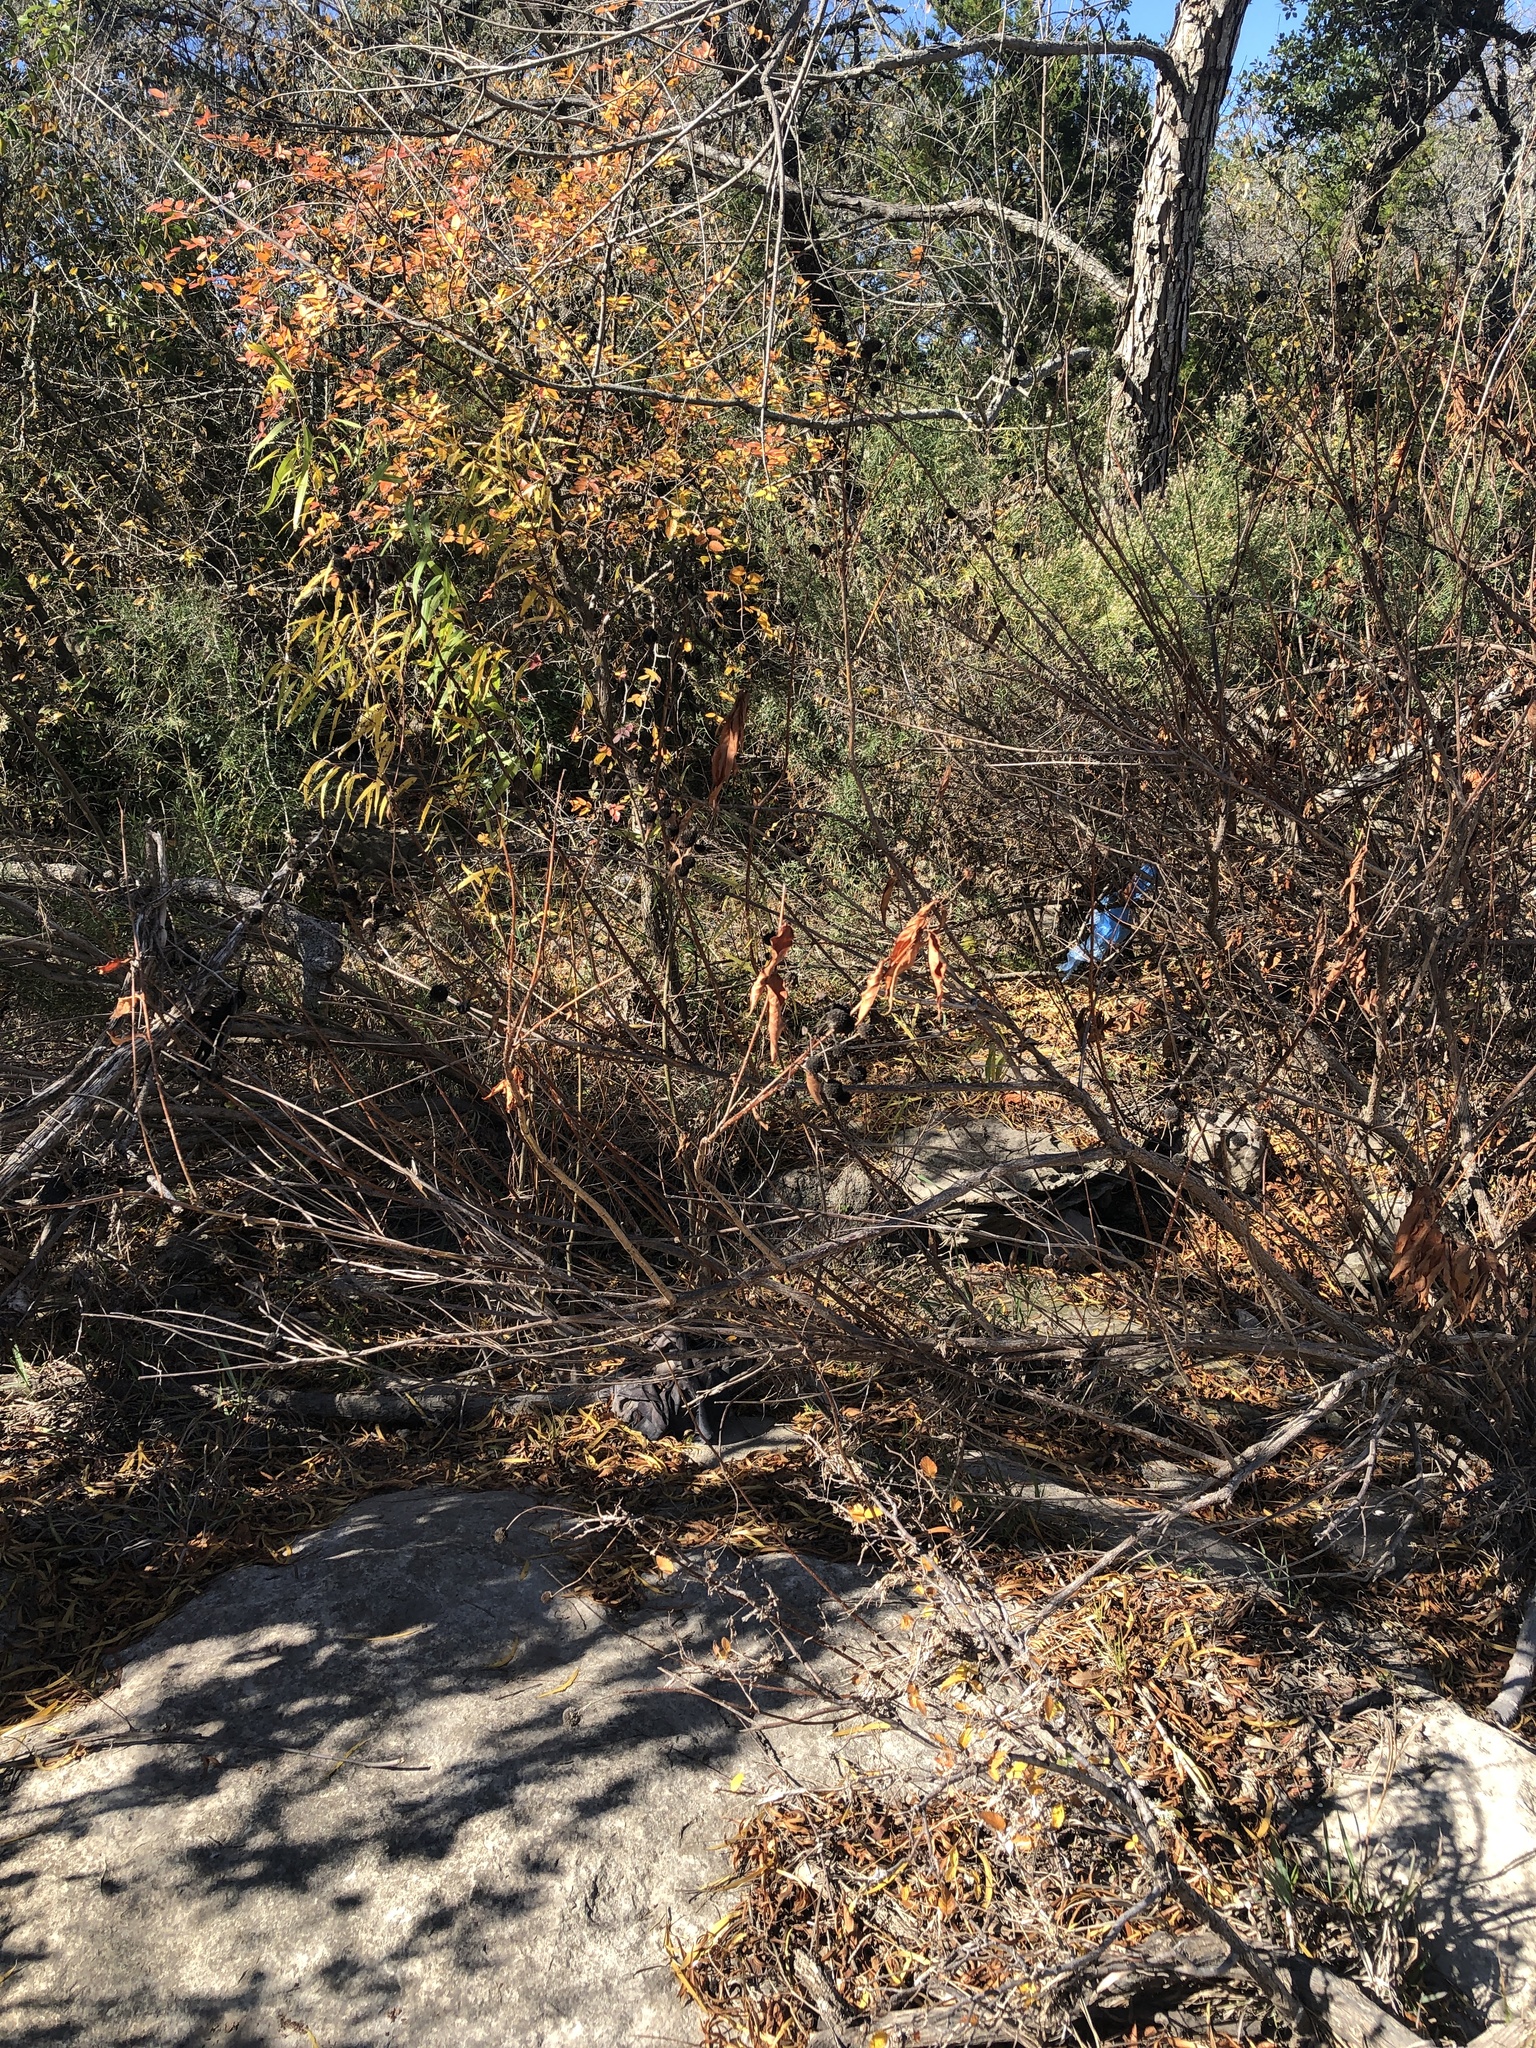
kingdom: Plantae
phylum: Tracheophyta
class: Magnoliopsida
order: Gentianales
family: Rubiaceae
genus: Cephalanthus
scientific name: Cephalanthus occidentalis
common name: Button-willow
